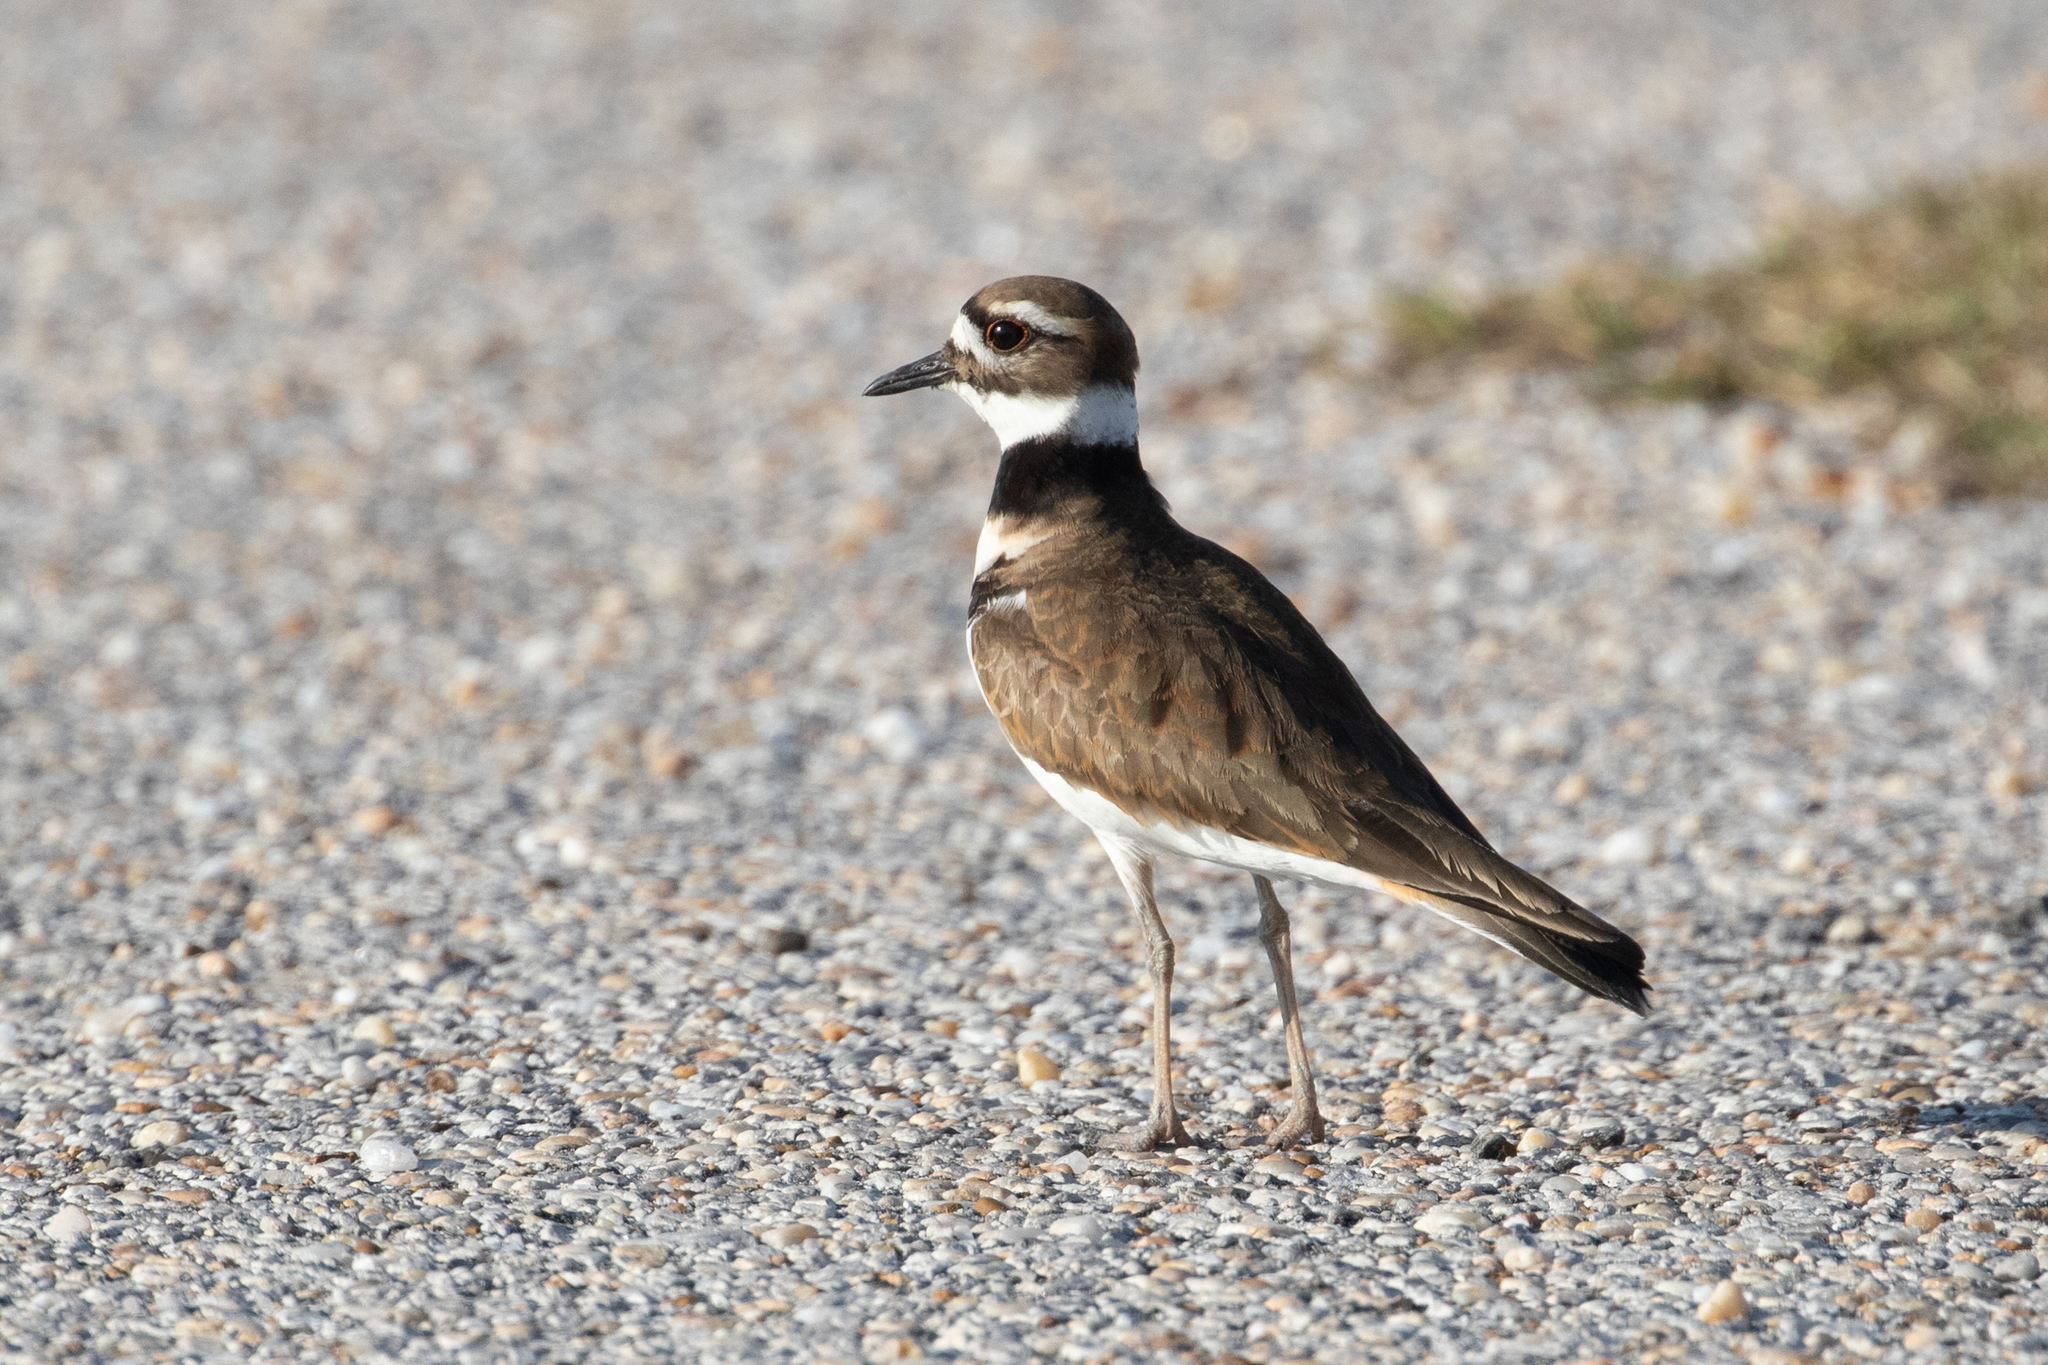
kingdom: Animalia
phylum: Chordata
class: Aves
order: Charadriiformes
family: Charadriidae
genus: Charadrius
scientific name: Charadrius vociferus
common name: Killdeer
